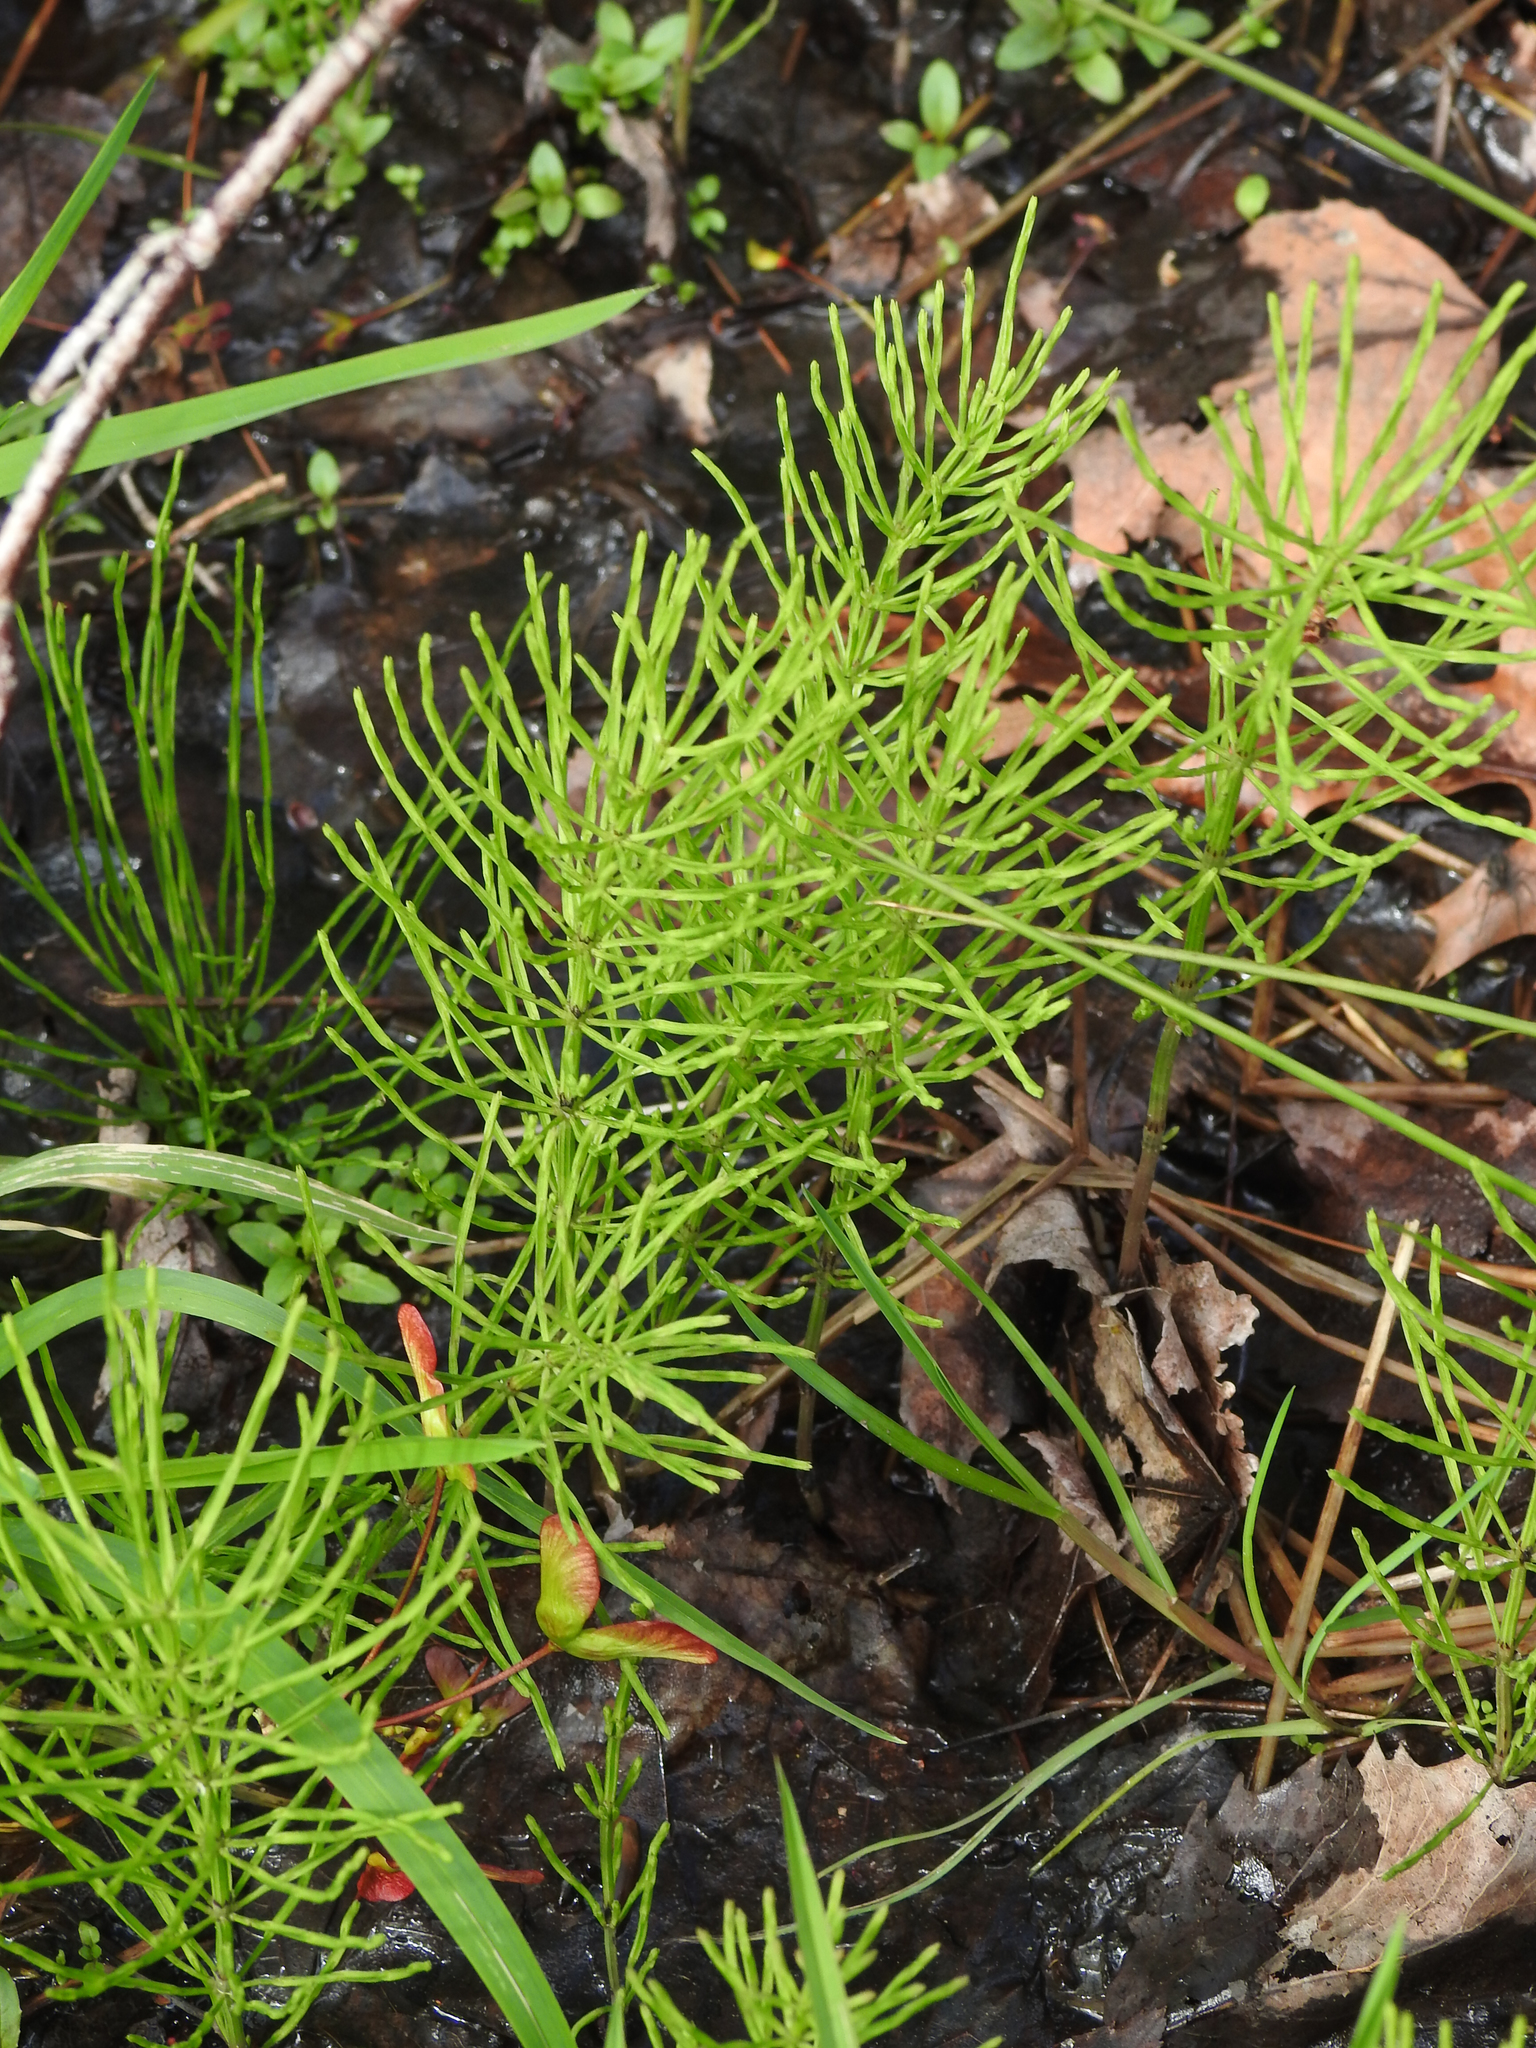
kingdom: Plantae
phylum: Tracheophyta
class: Polypodiopsida
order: Equisetales
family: Equisetaceae
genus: Equisetum
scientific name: Equisetum arvense
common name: Field horsetail
